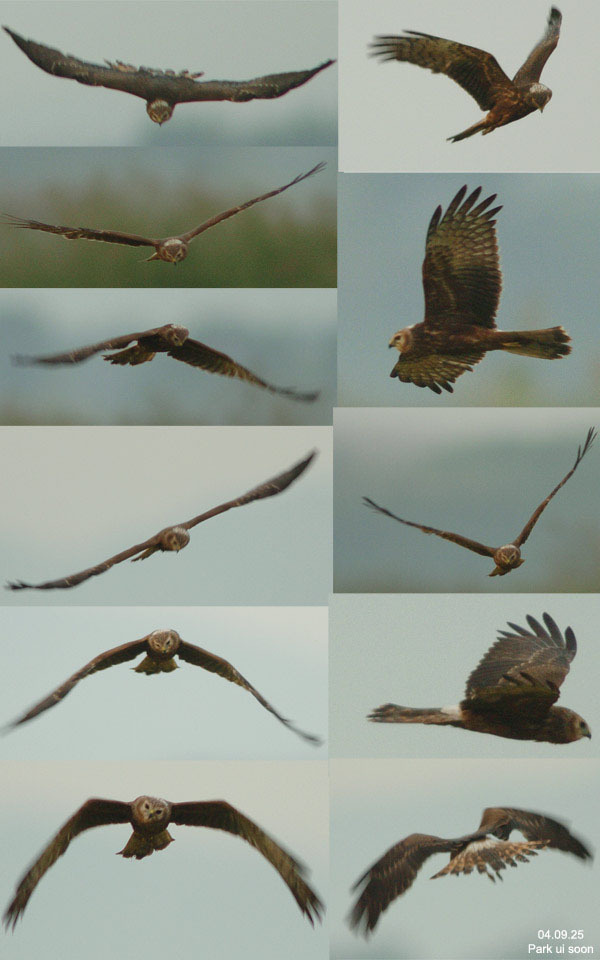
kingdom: Animalia
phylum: Chordata
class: Aves
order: Accipitriformes
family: Accipitridae
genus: Circus
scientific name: Circus melanoleucos
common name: Pied harrier
